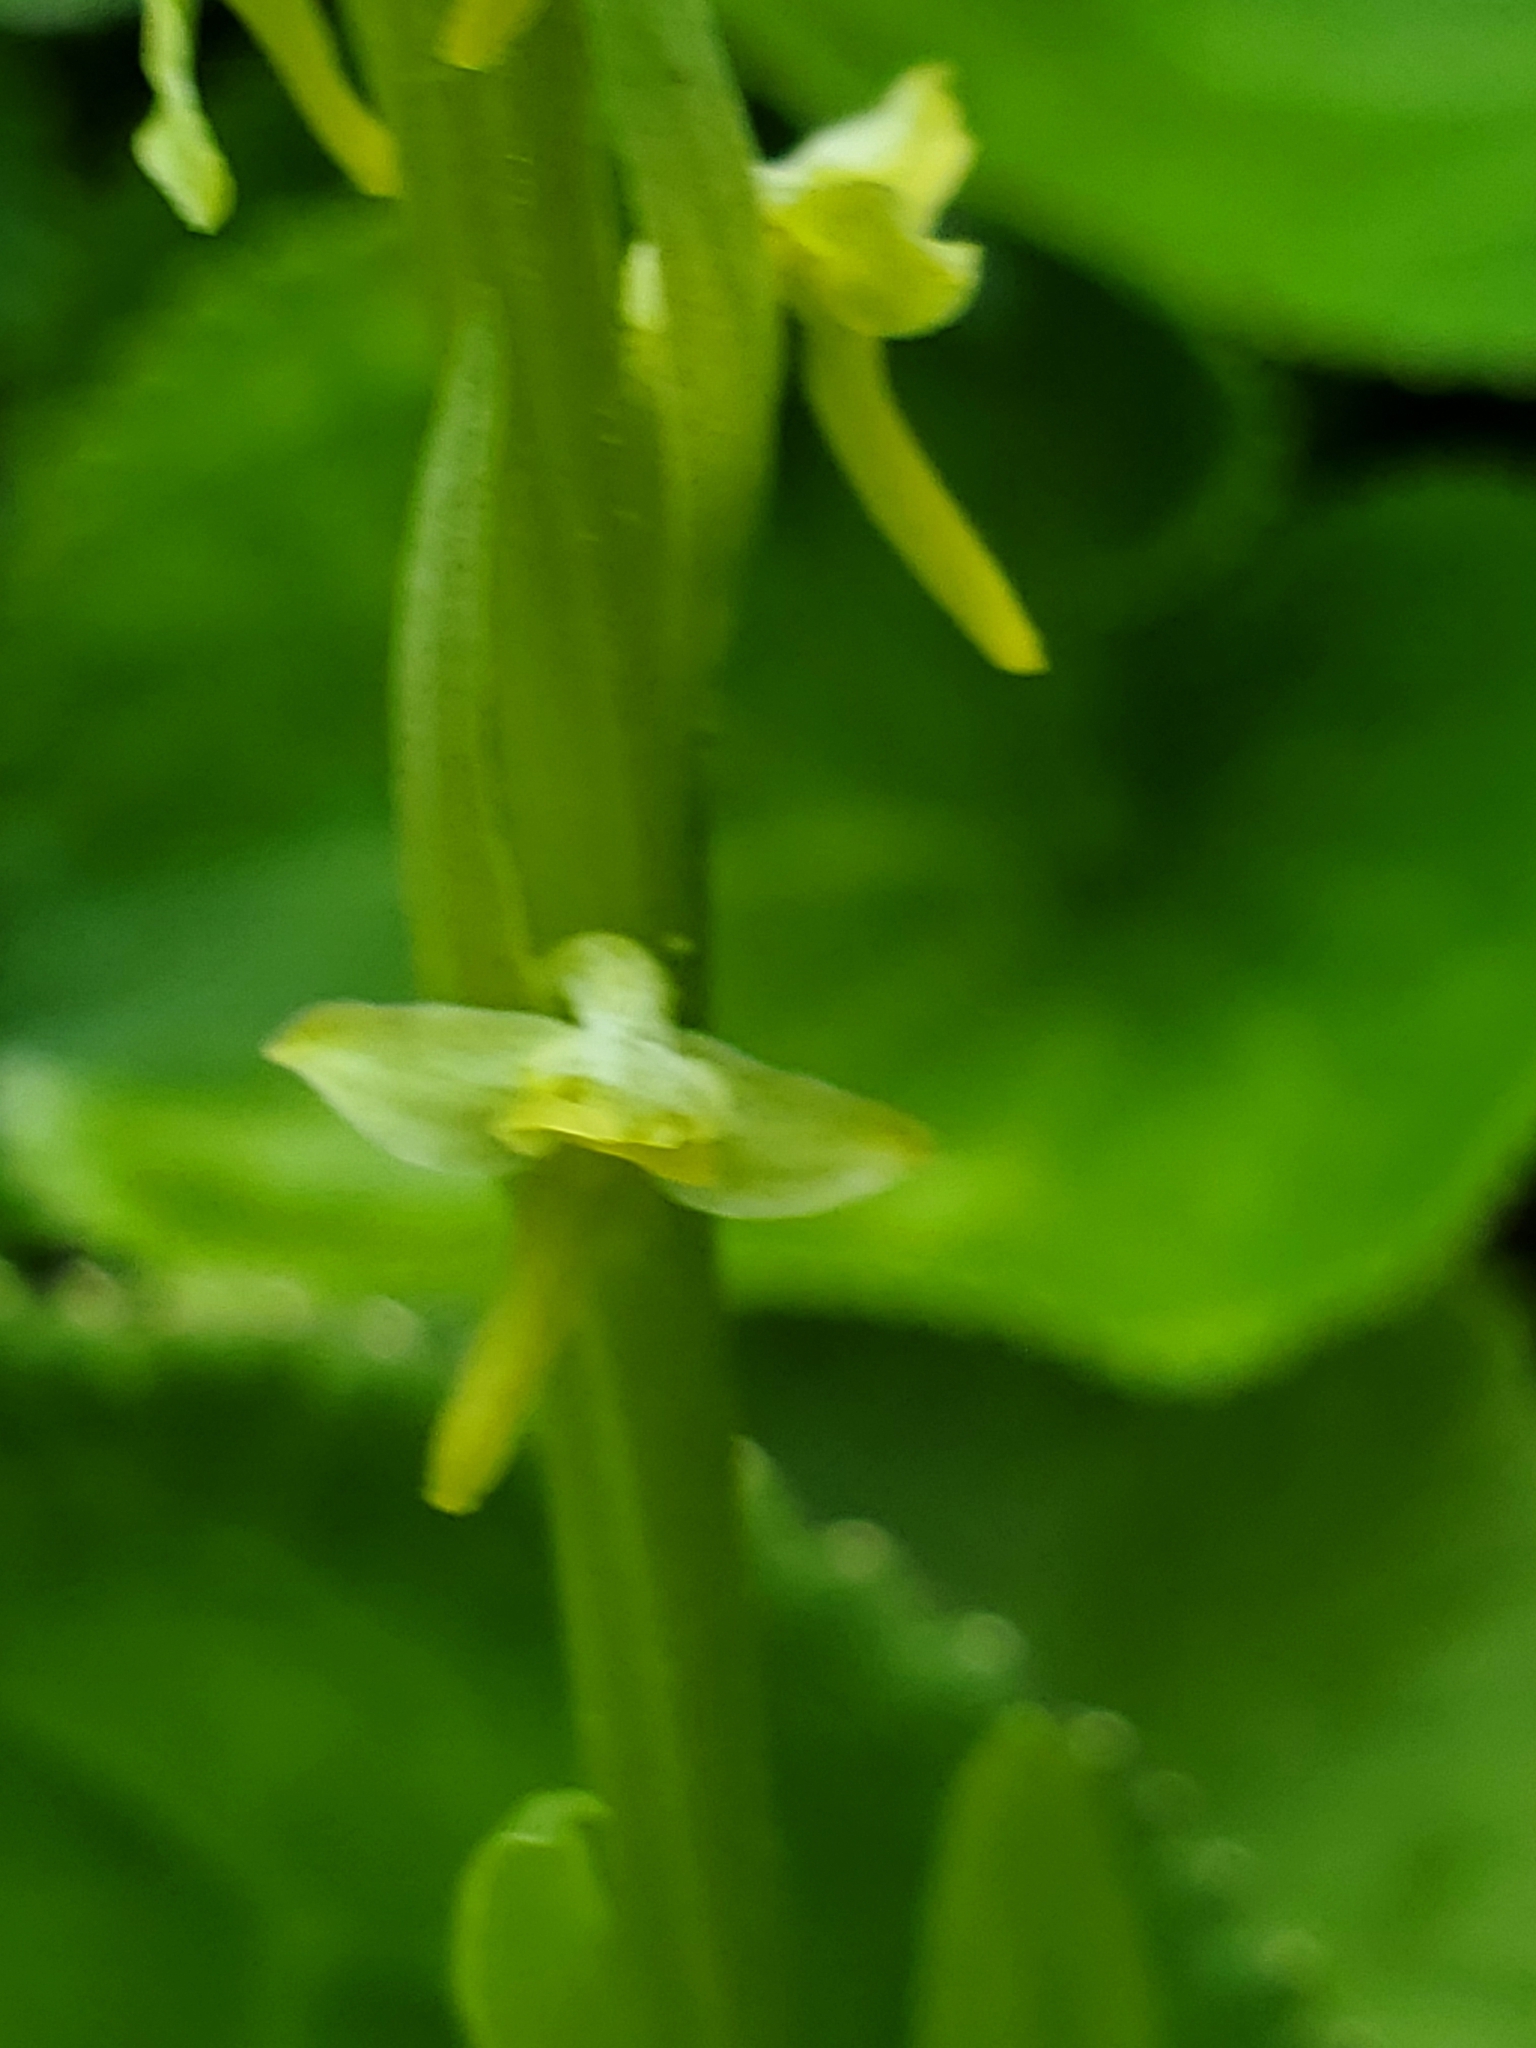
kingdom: Plantae
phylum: Tracheophyta
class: Liliopsida
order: Asparagales
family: Orchidaceae
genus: Platanthera
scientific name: Platanthera stricta
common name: Slender bog orchid
